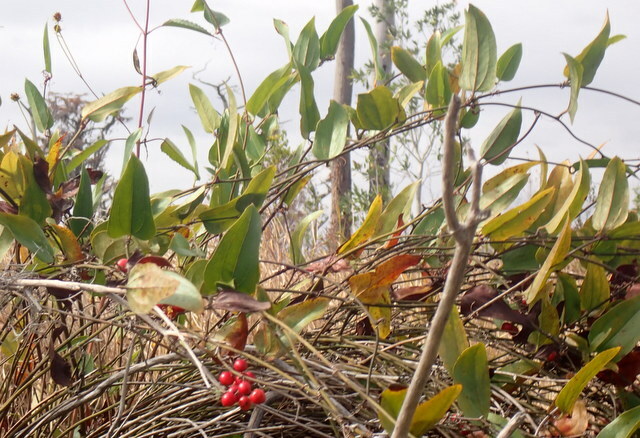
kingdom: Plantae
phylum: Tracheophyta
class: Liliopsida
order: Liliales
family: Smilacaceae
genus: Smilax
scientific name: Smilax walteri
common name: Coral greenbrier
